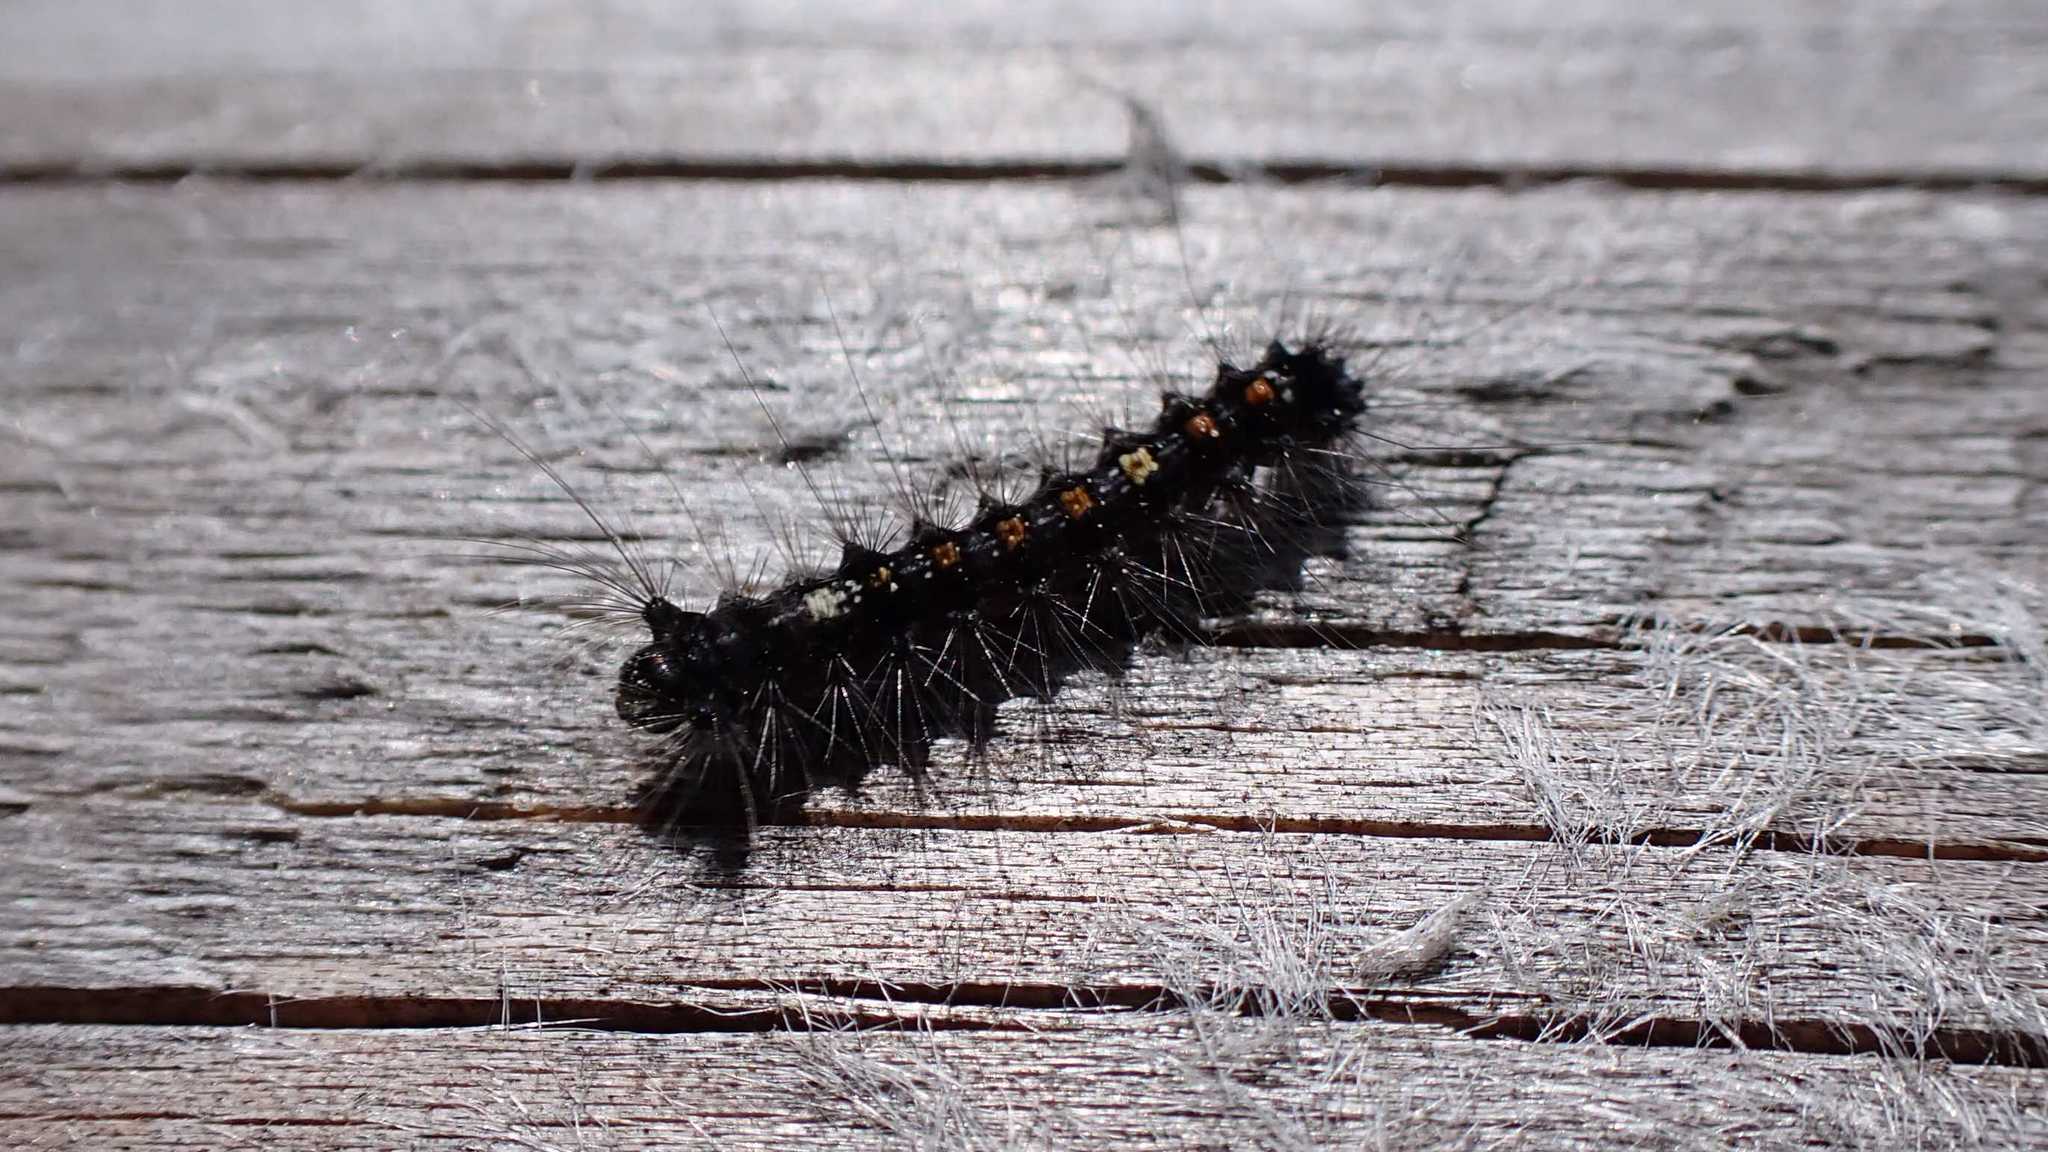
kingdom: Animalia
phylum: Arthropoda
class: Insecta
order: Lepidoptera
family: Erebidae
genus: Lymantria
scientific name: Lymantria dispar
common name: Gypsy moth
